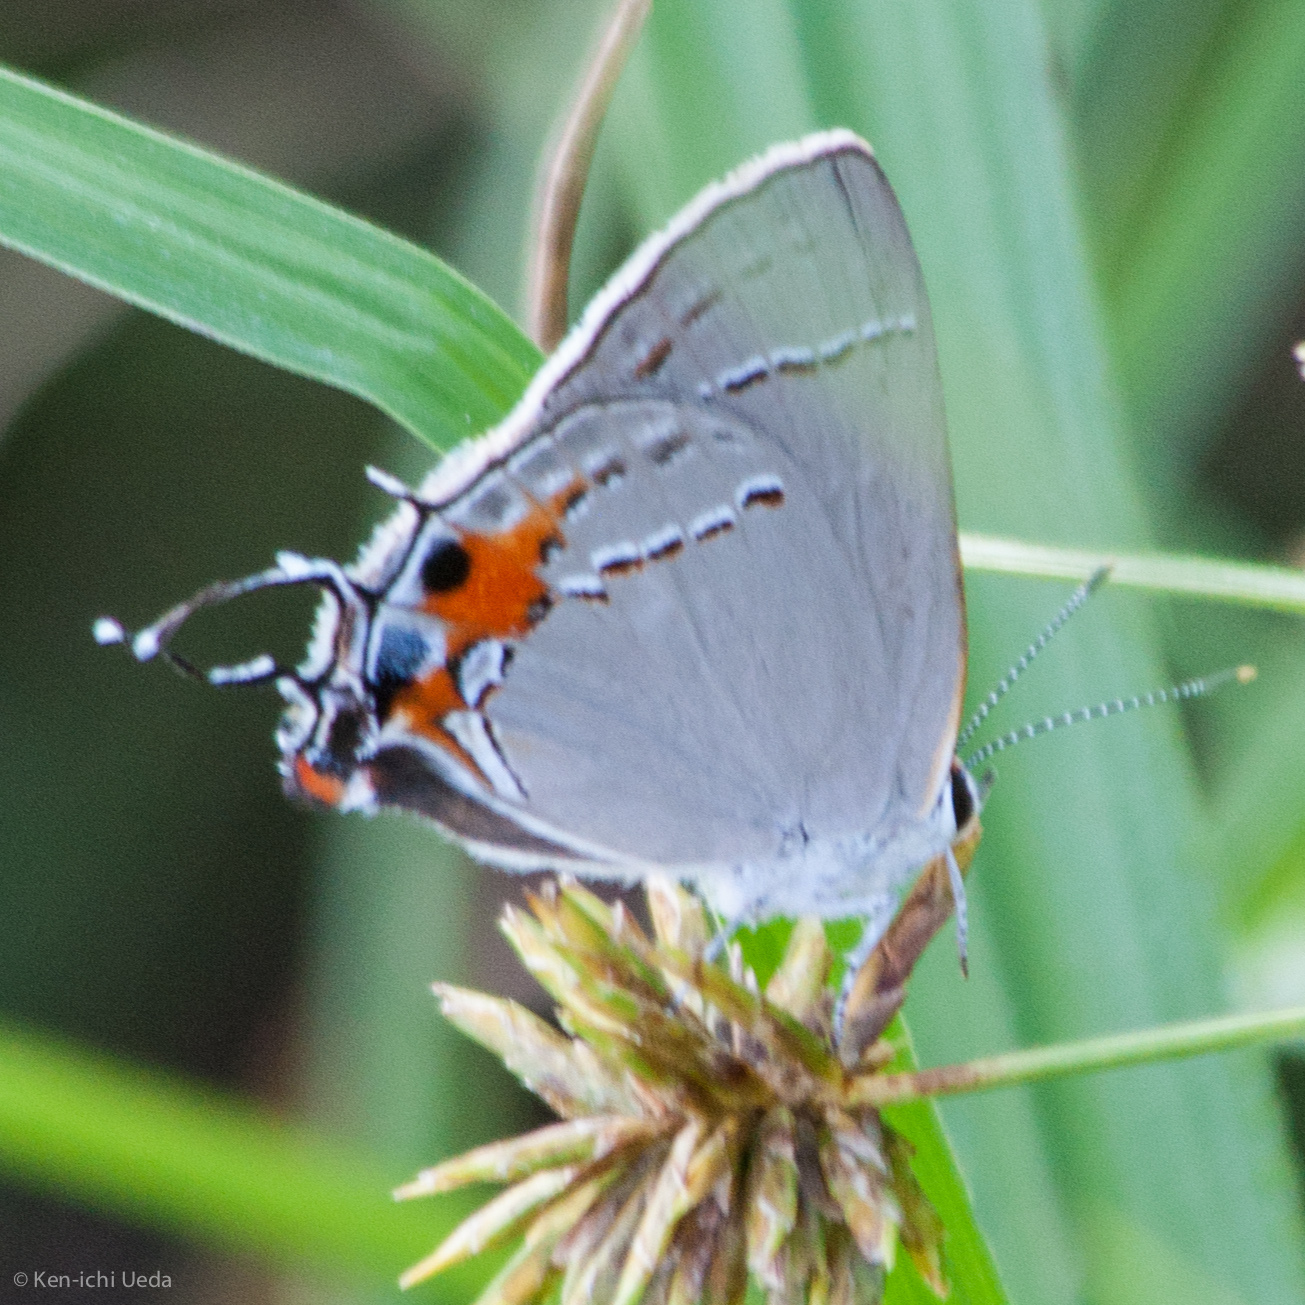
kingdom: Animalia
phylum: Arthropoda
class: Insecta
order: Lepidoptera
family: Lycaenidae
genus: Strymon
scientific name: Strymon melinus
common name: Gray hairstreak
